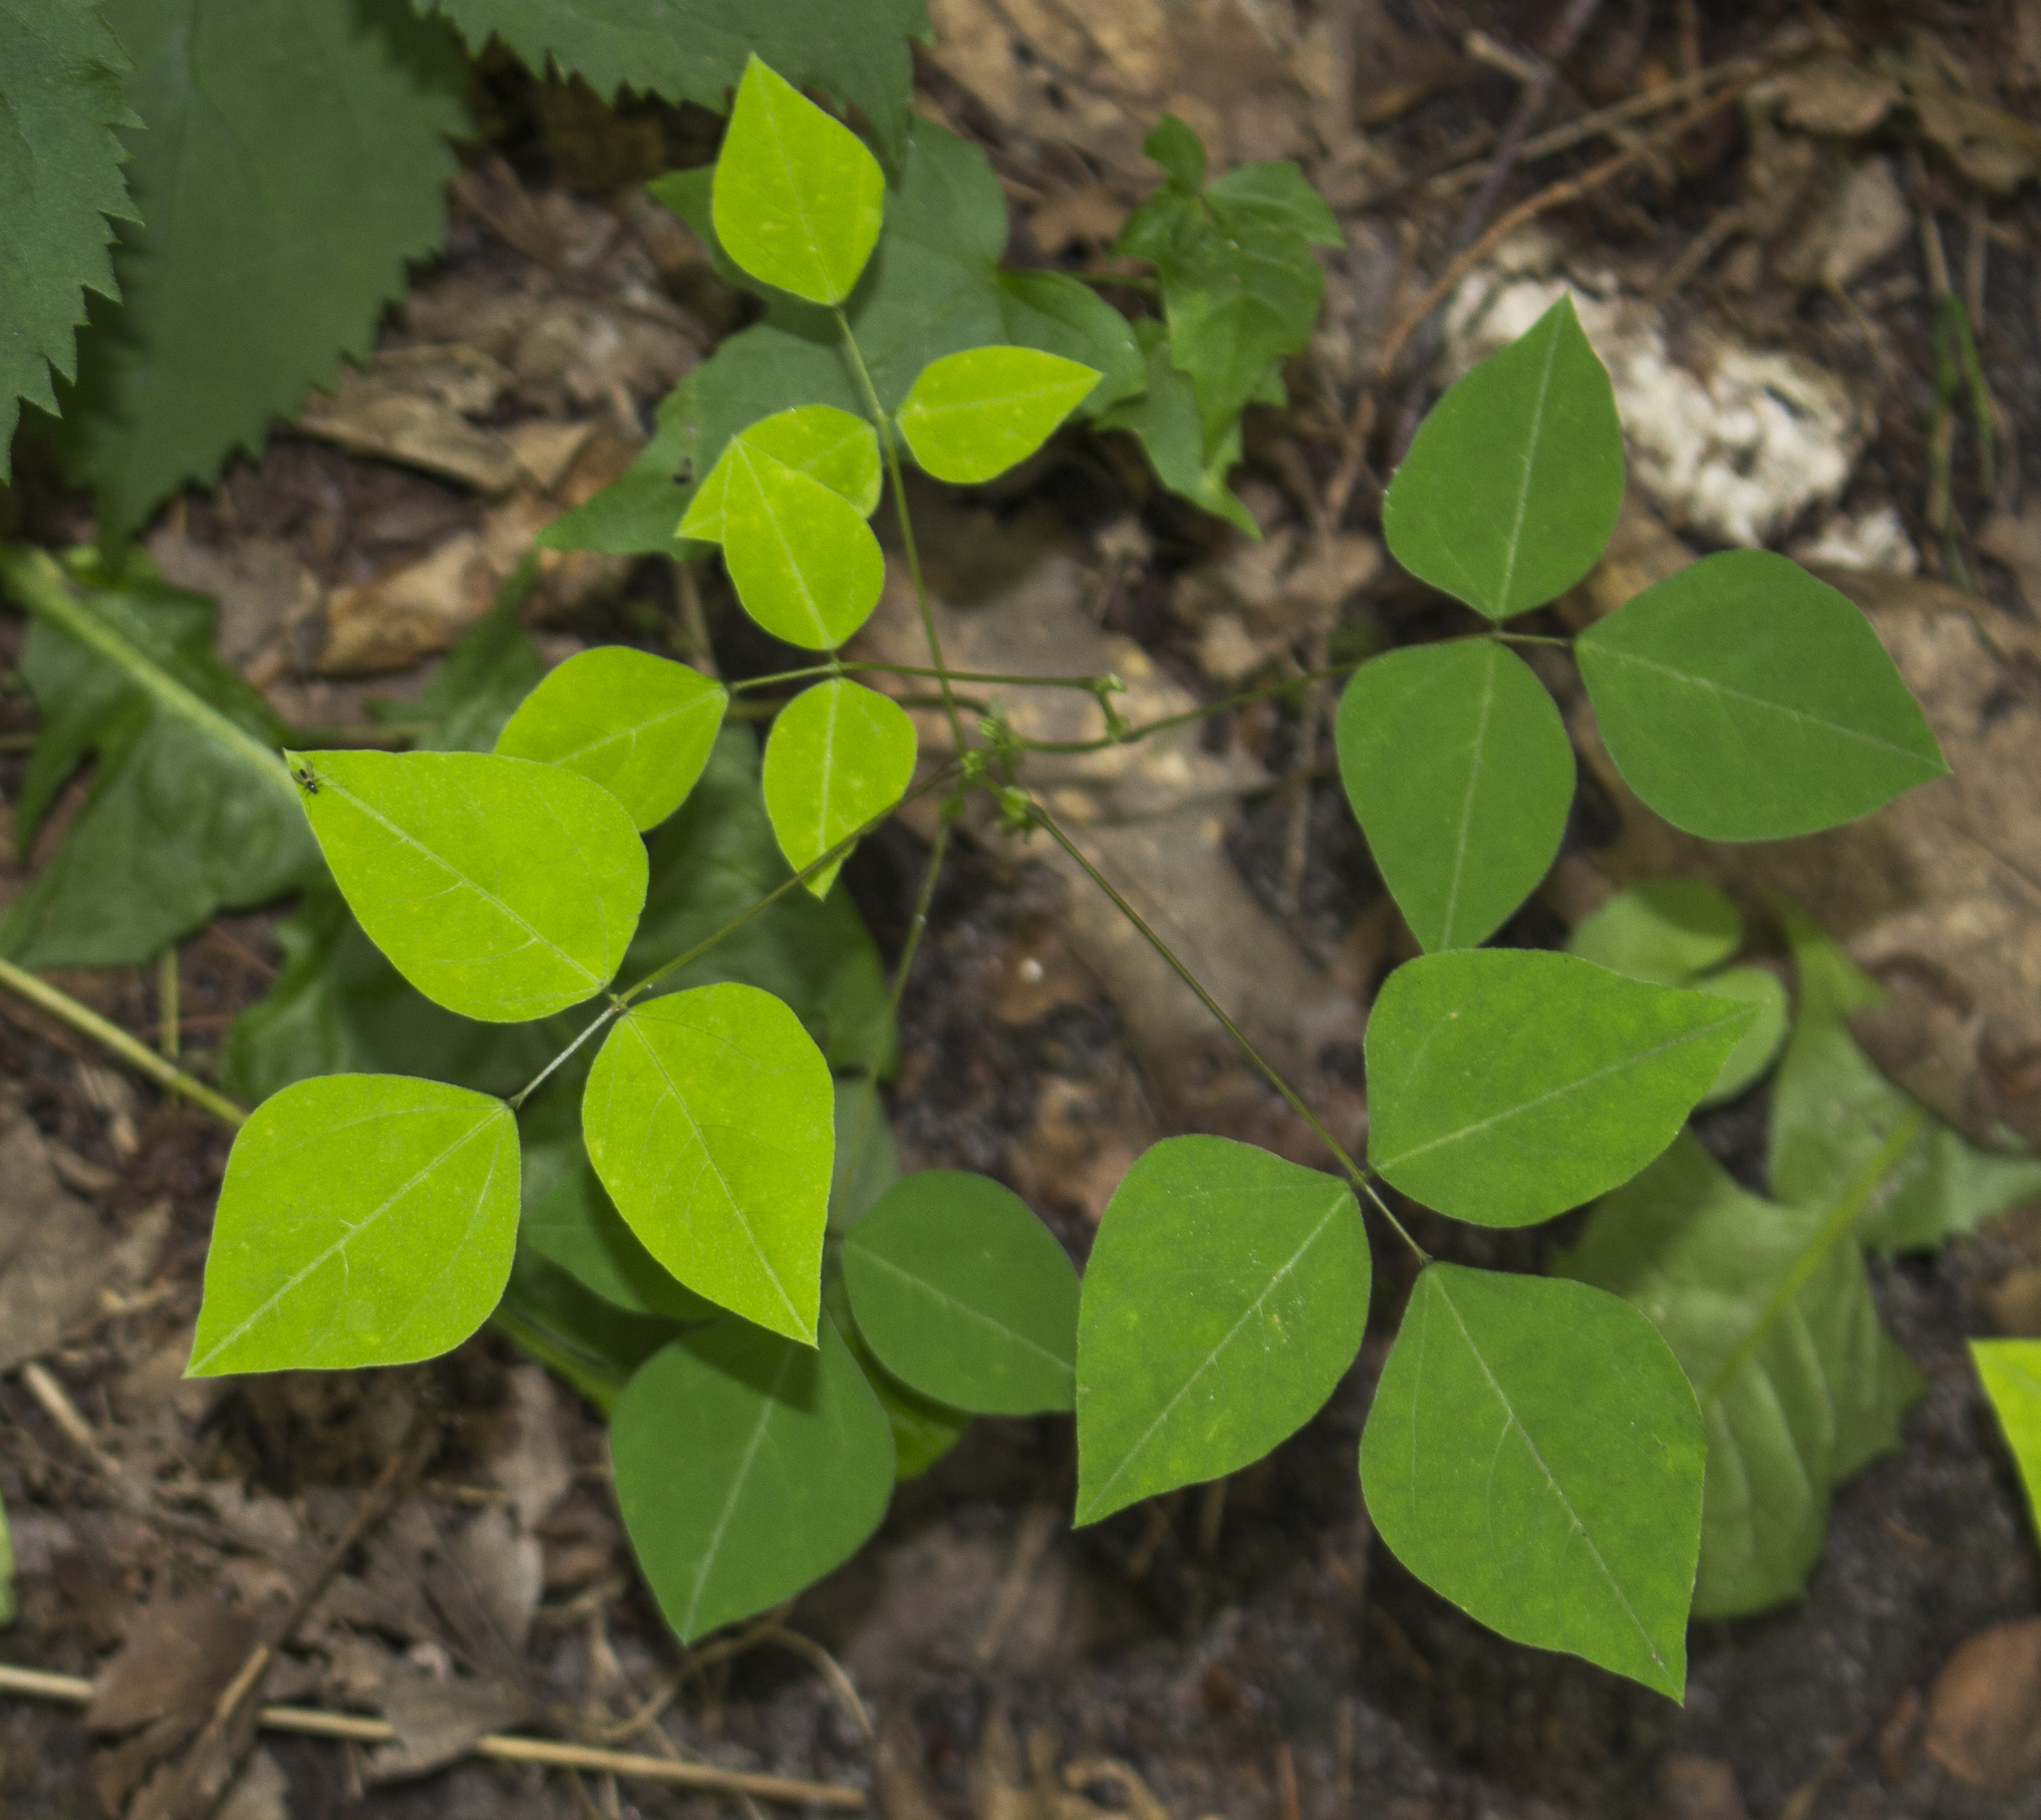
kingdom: Plantae
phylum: Tracheophyta
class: Magnoliopsida
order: Fabales
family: Fabaceae
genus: Amphicarpaea
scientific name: Amphicarpaea bracteata
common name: American hog peanut
